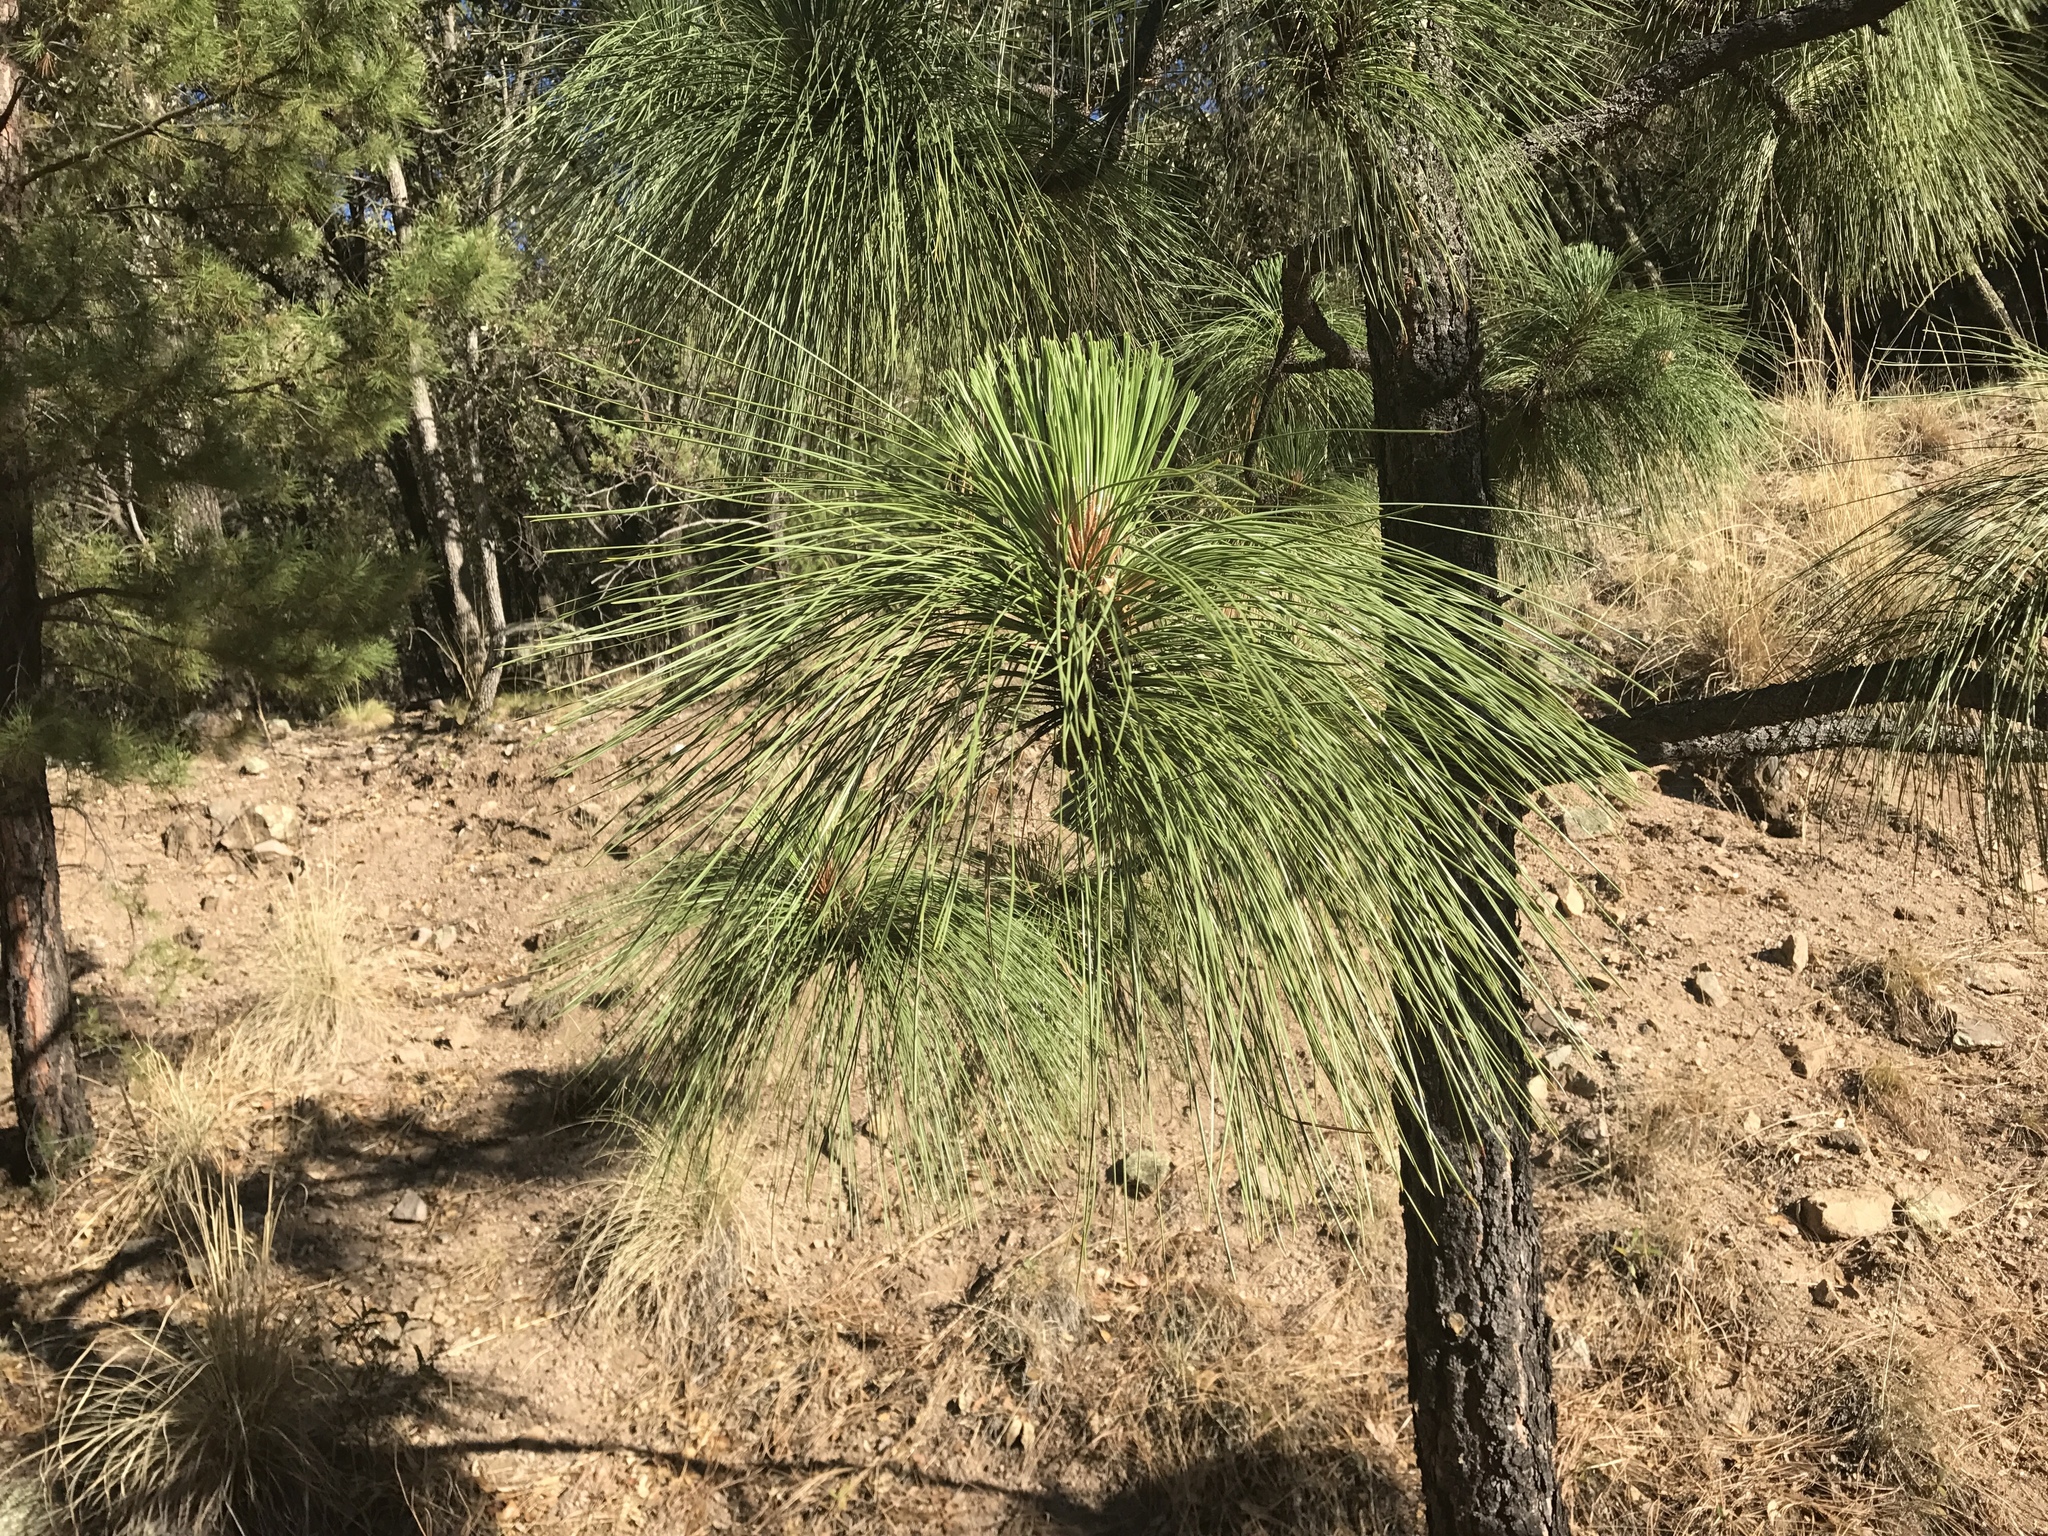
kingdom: Plantae
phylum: Tracheophyta
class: Pinopsida
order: Pinales
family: Pinaceae
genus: Pinus
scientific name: Pinus engelmannii
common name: Apache pine
